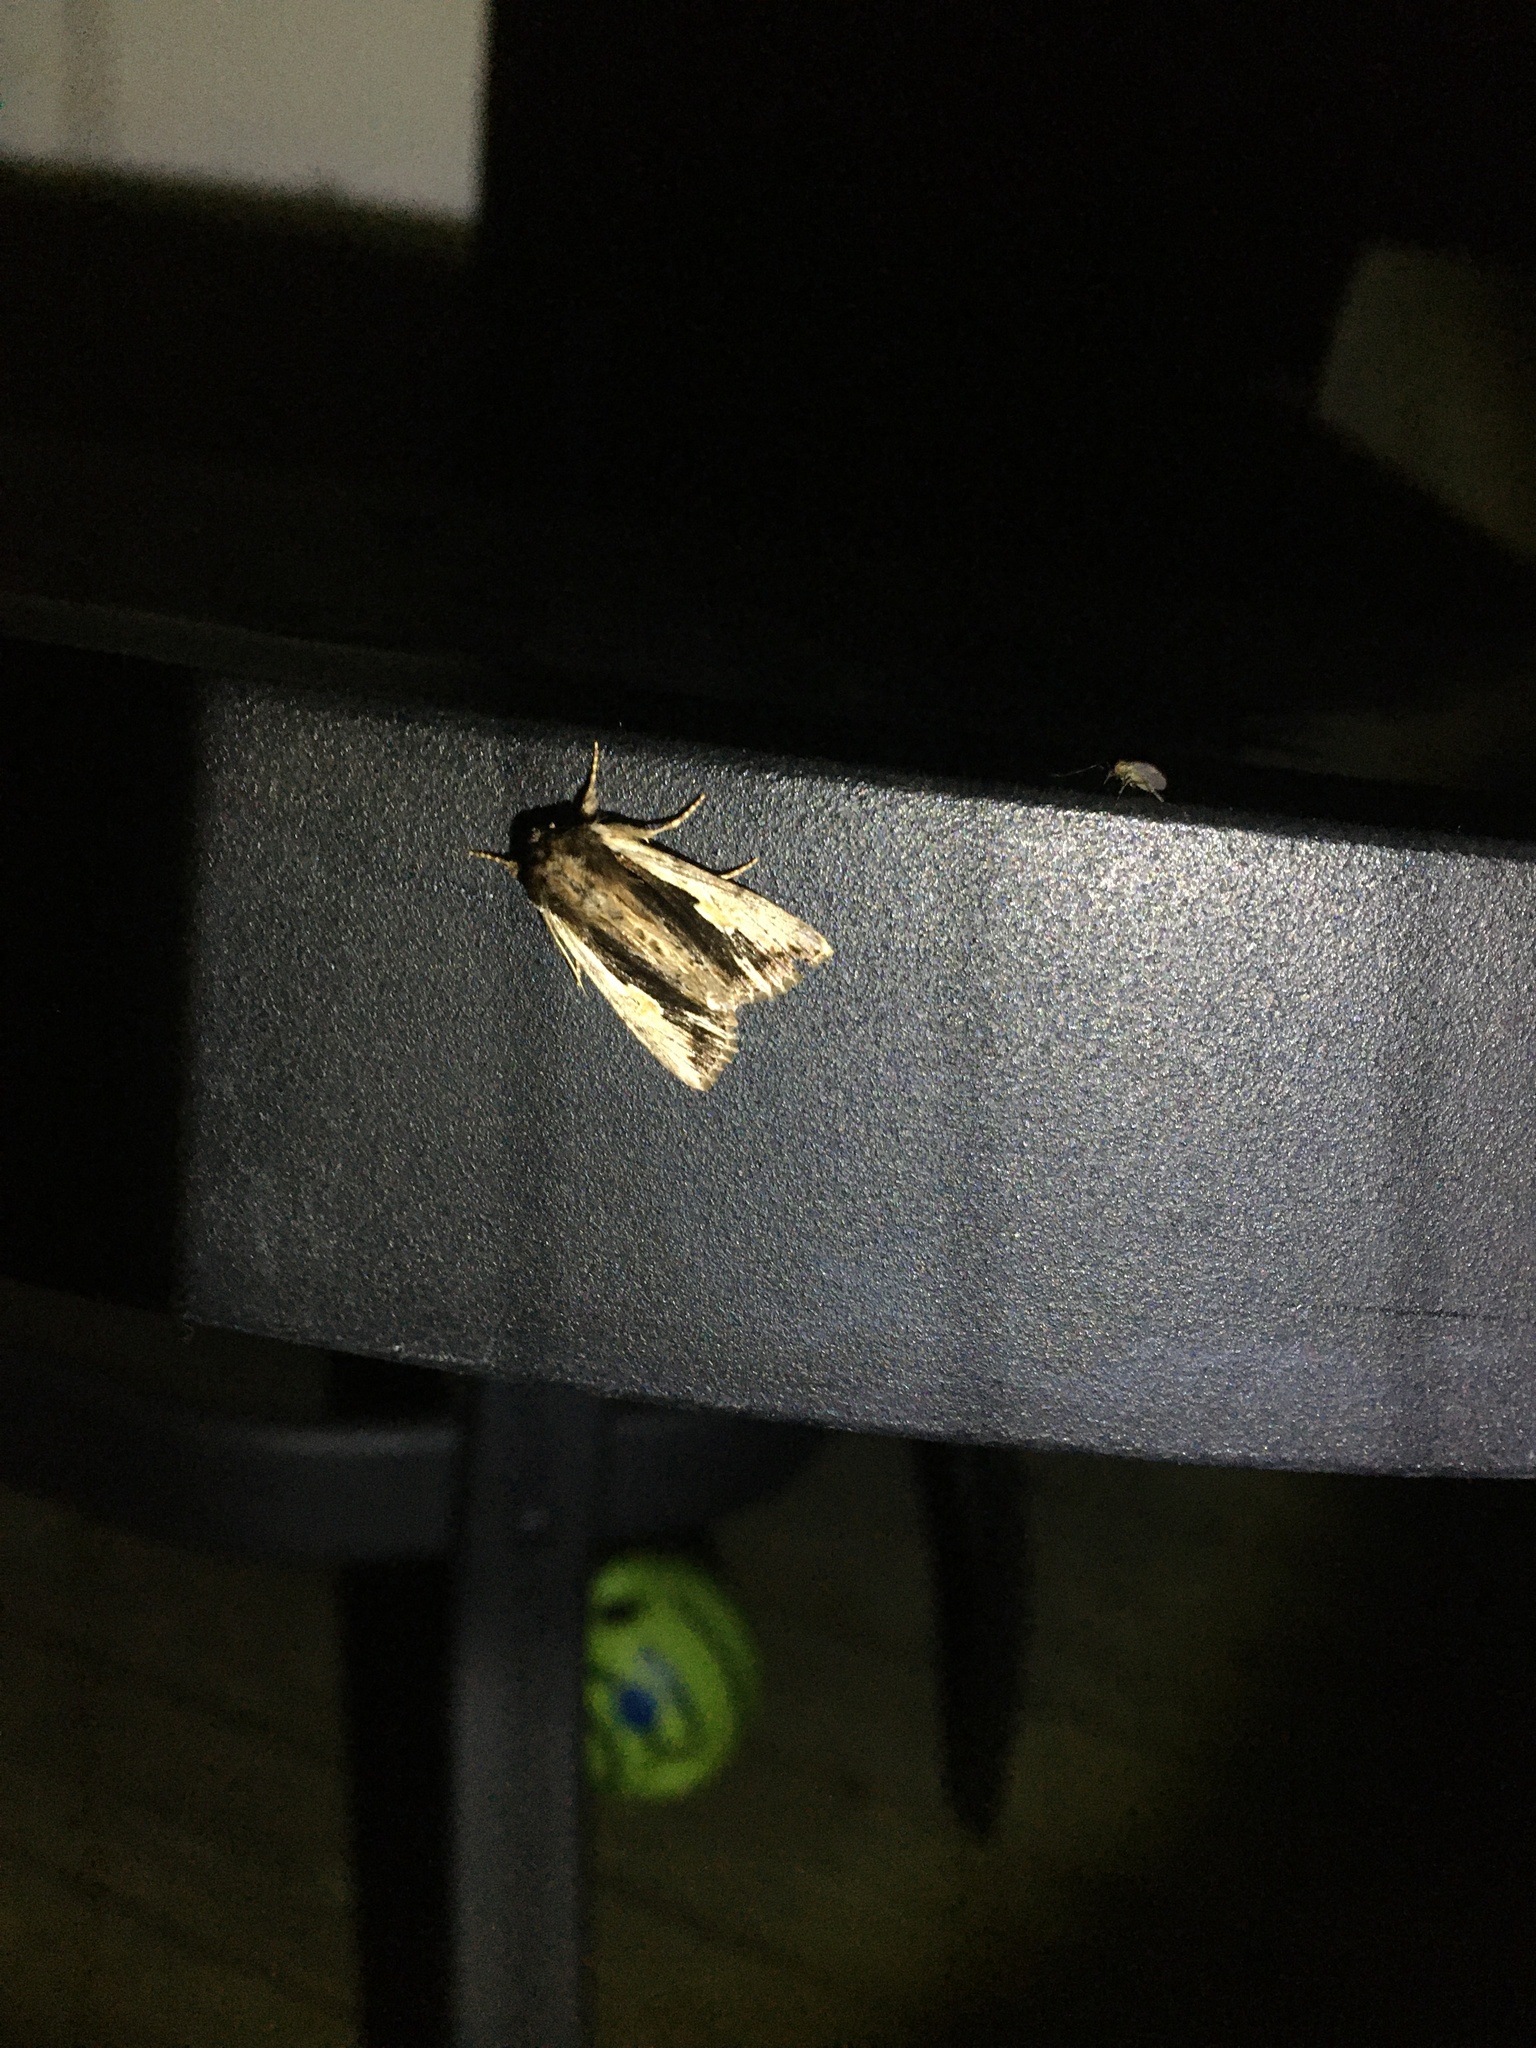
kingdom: Animalia
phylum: Arthropoda
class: Insecta
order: Lepidoptera
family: Noctuidae
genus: Achatia
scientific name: Achatia evicta
